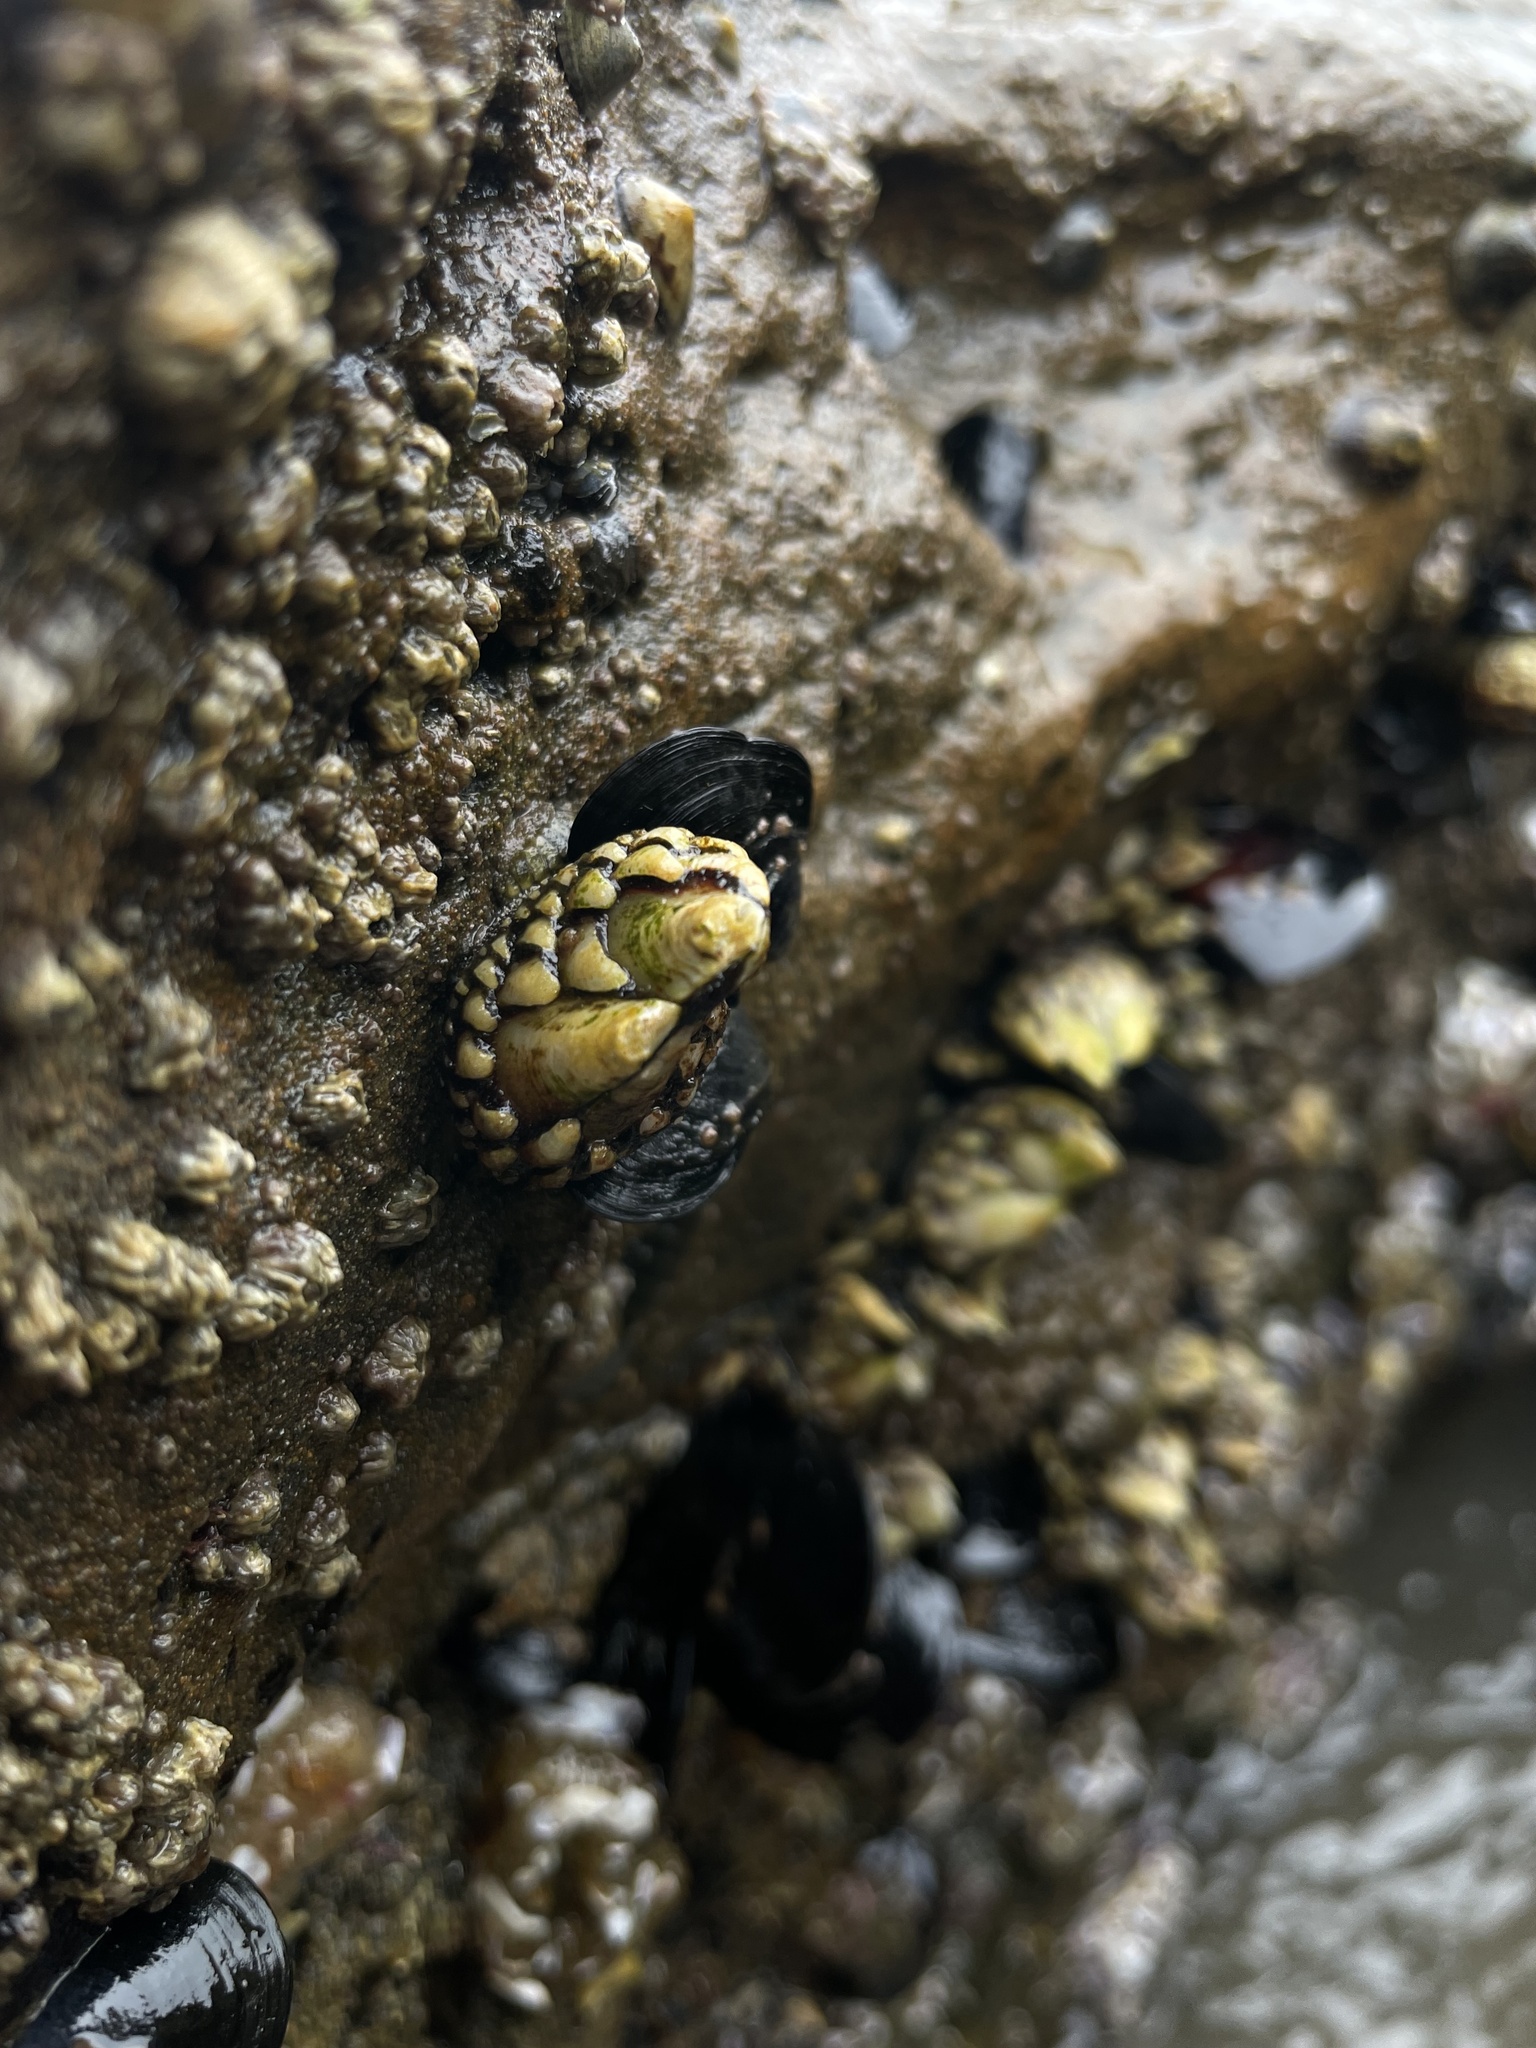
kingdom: Animalia
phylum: Arthropoda
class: Maxillopoda
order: Pedunculata
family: Pollicipedidae
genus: Pollicipes
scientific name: Pollicipes polymerus
